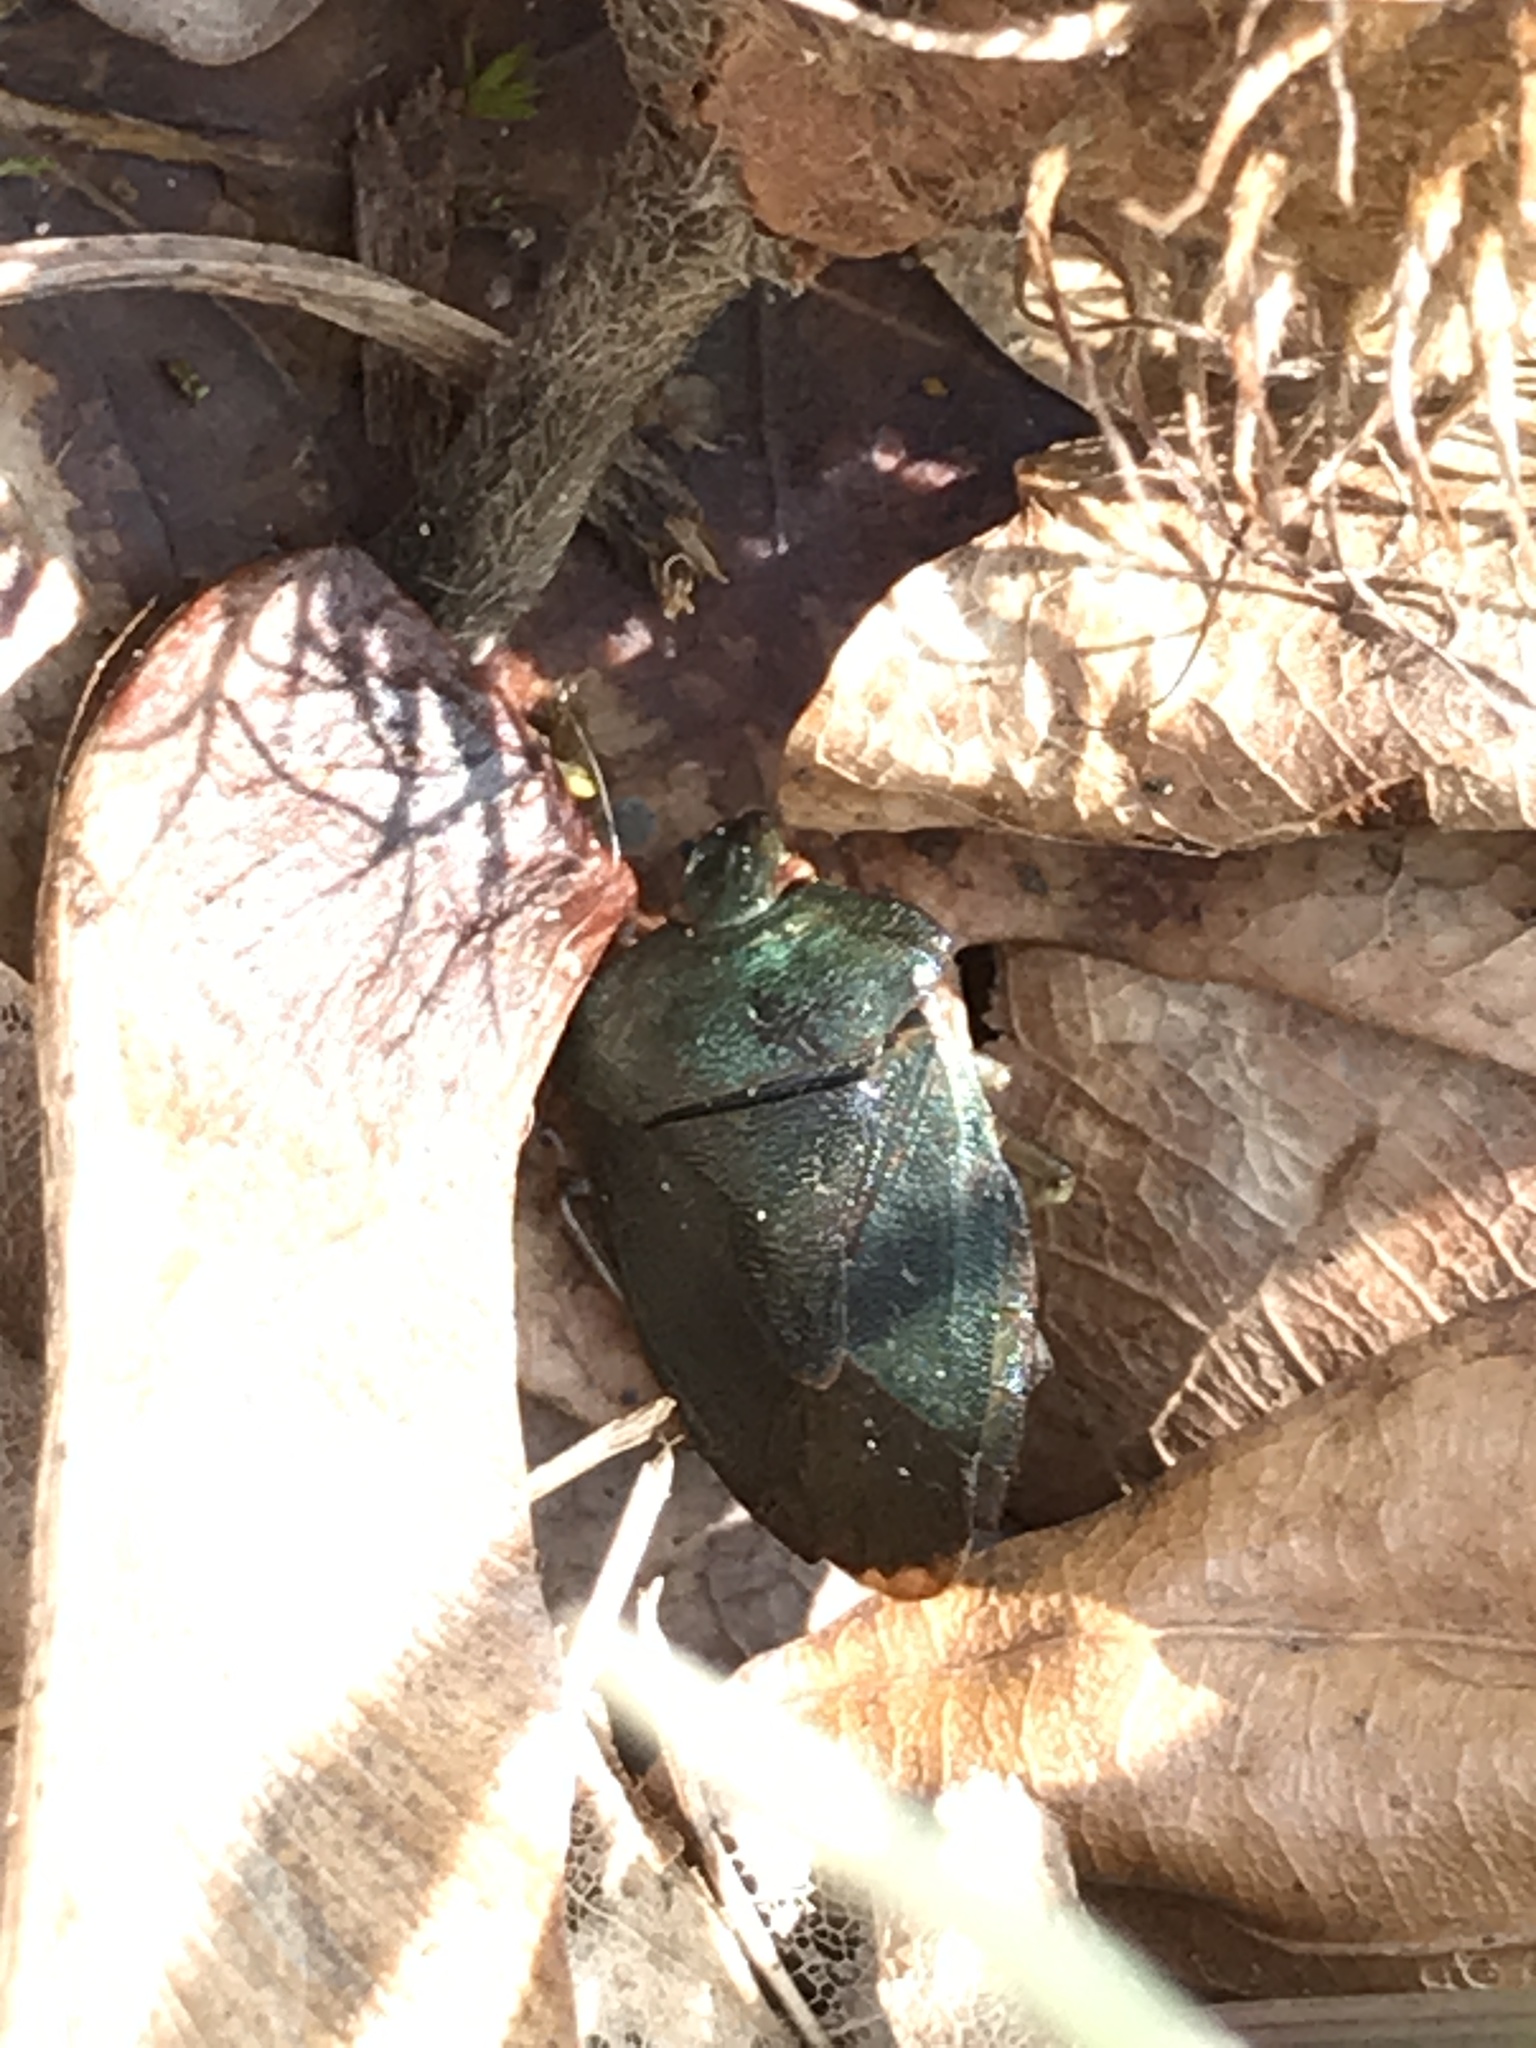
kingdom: Animalia
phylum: Arthropoda
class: Insecta
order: Hemiptera
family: Pentatomidae
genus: Palomena
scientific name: Palomena prasina
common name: Green shieldbug
